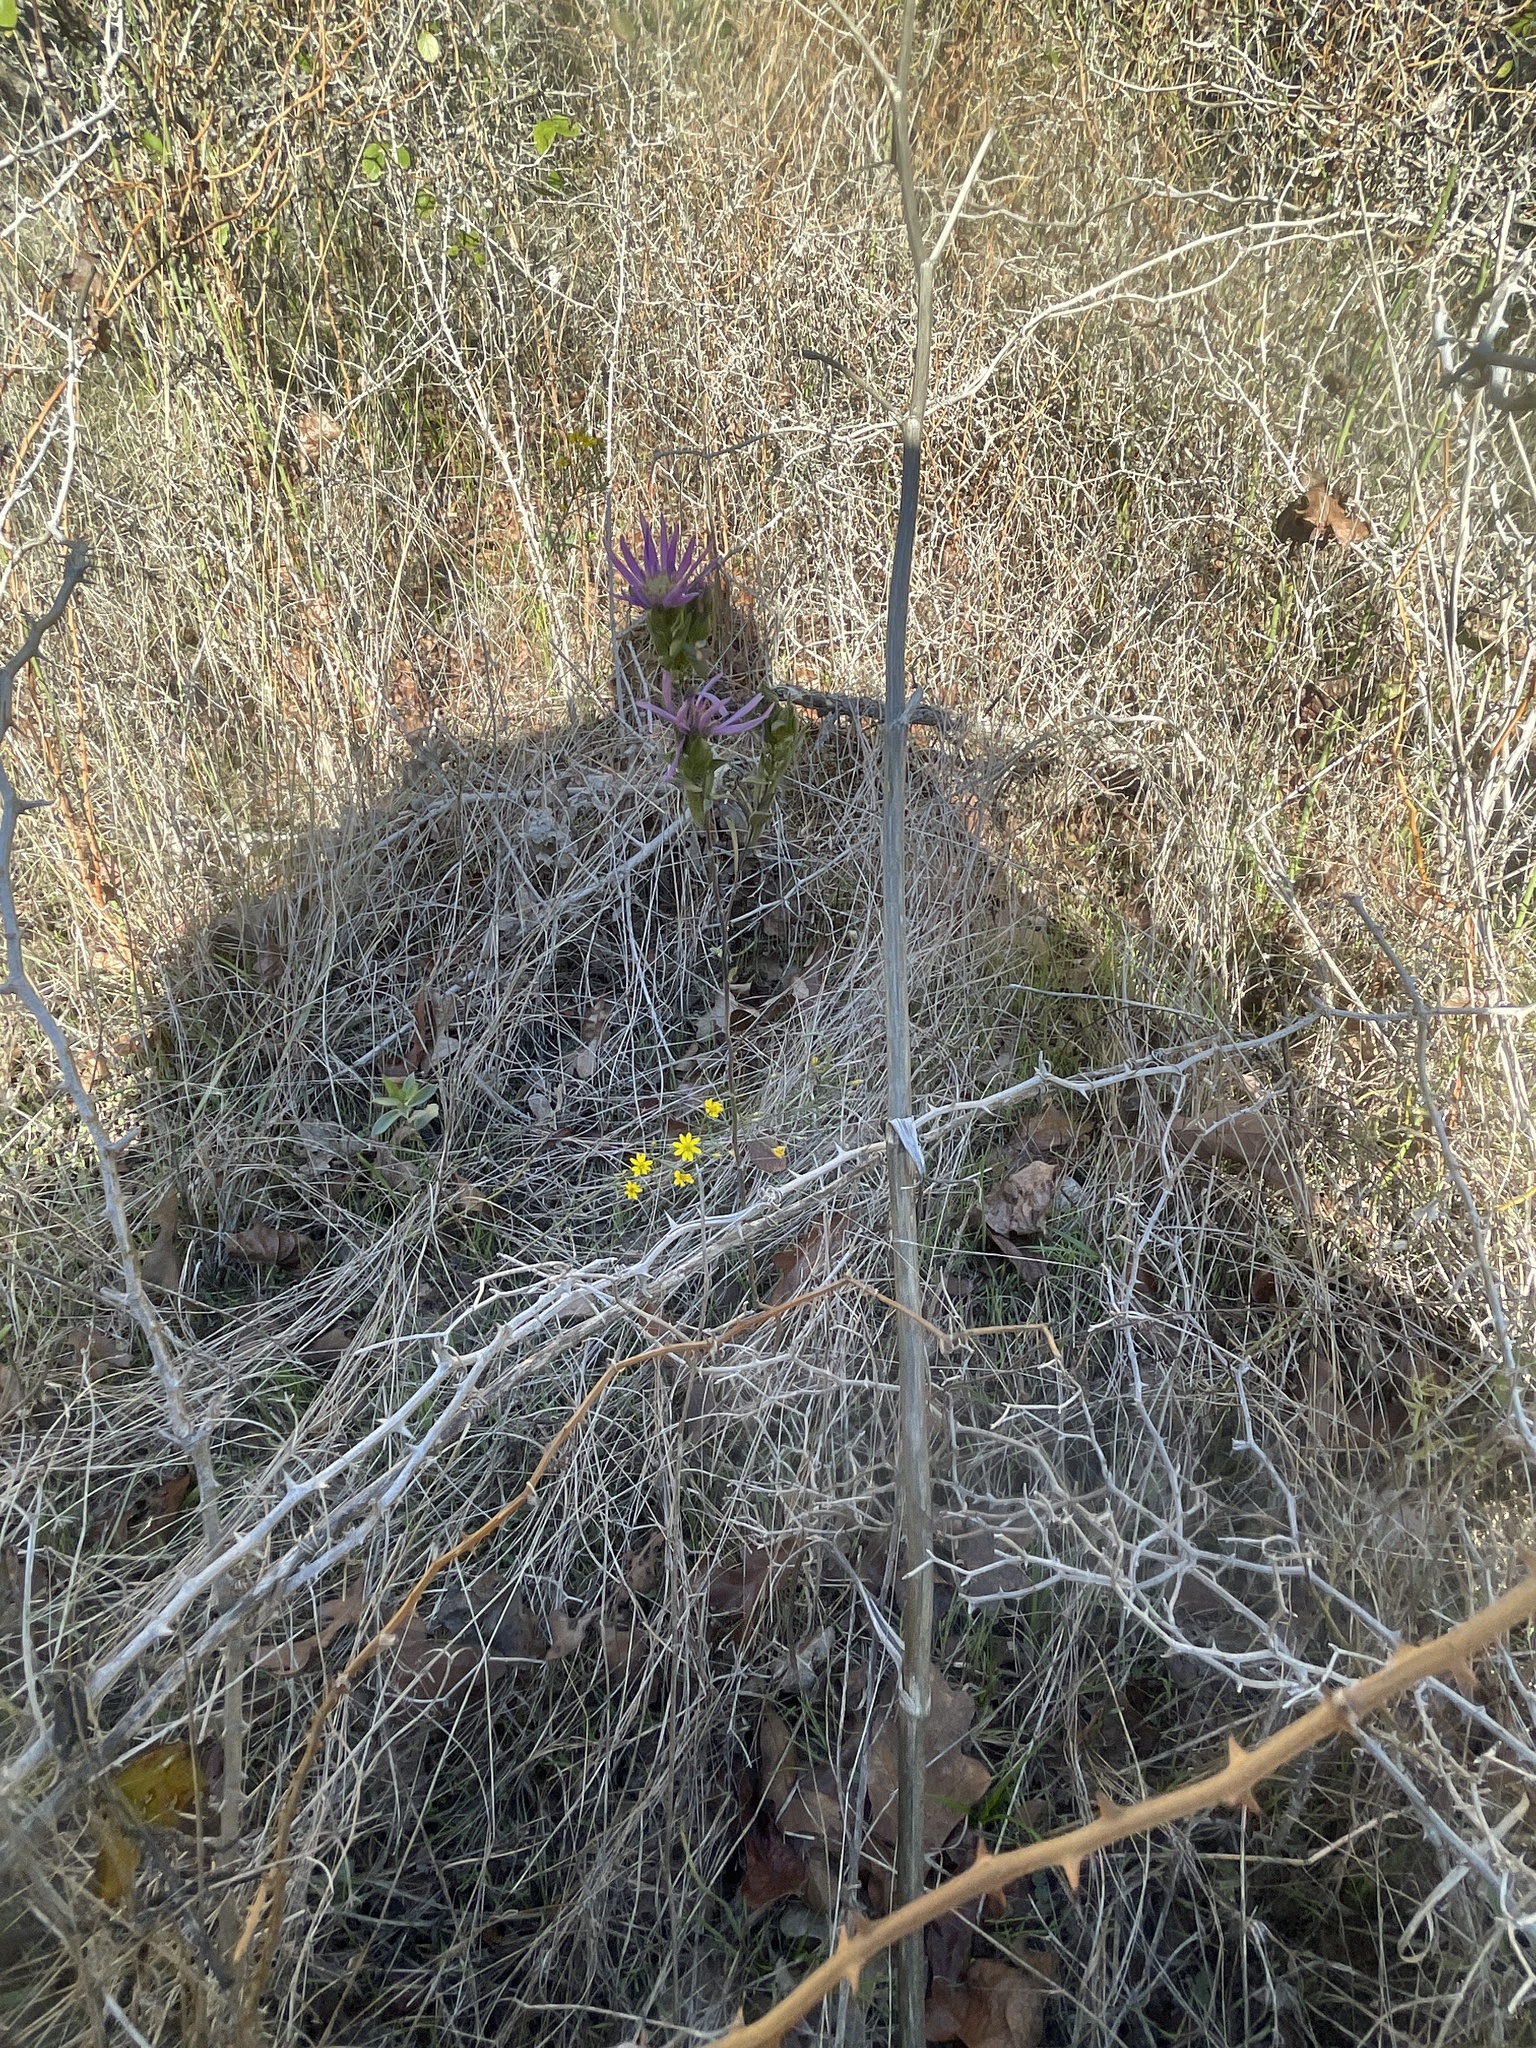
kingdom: Plantae
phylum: Tracheophyta
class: Magnoliopsida
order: Asterales
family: Asteraceae
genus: Symphyotrichum
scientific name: Symphyotrichum pratense
